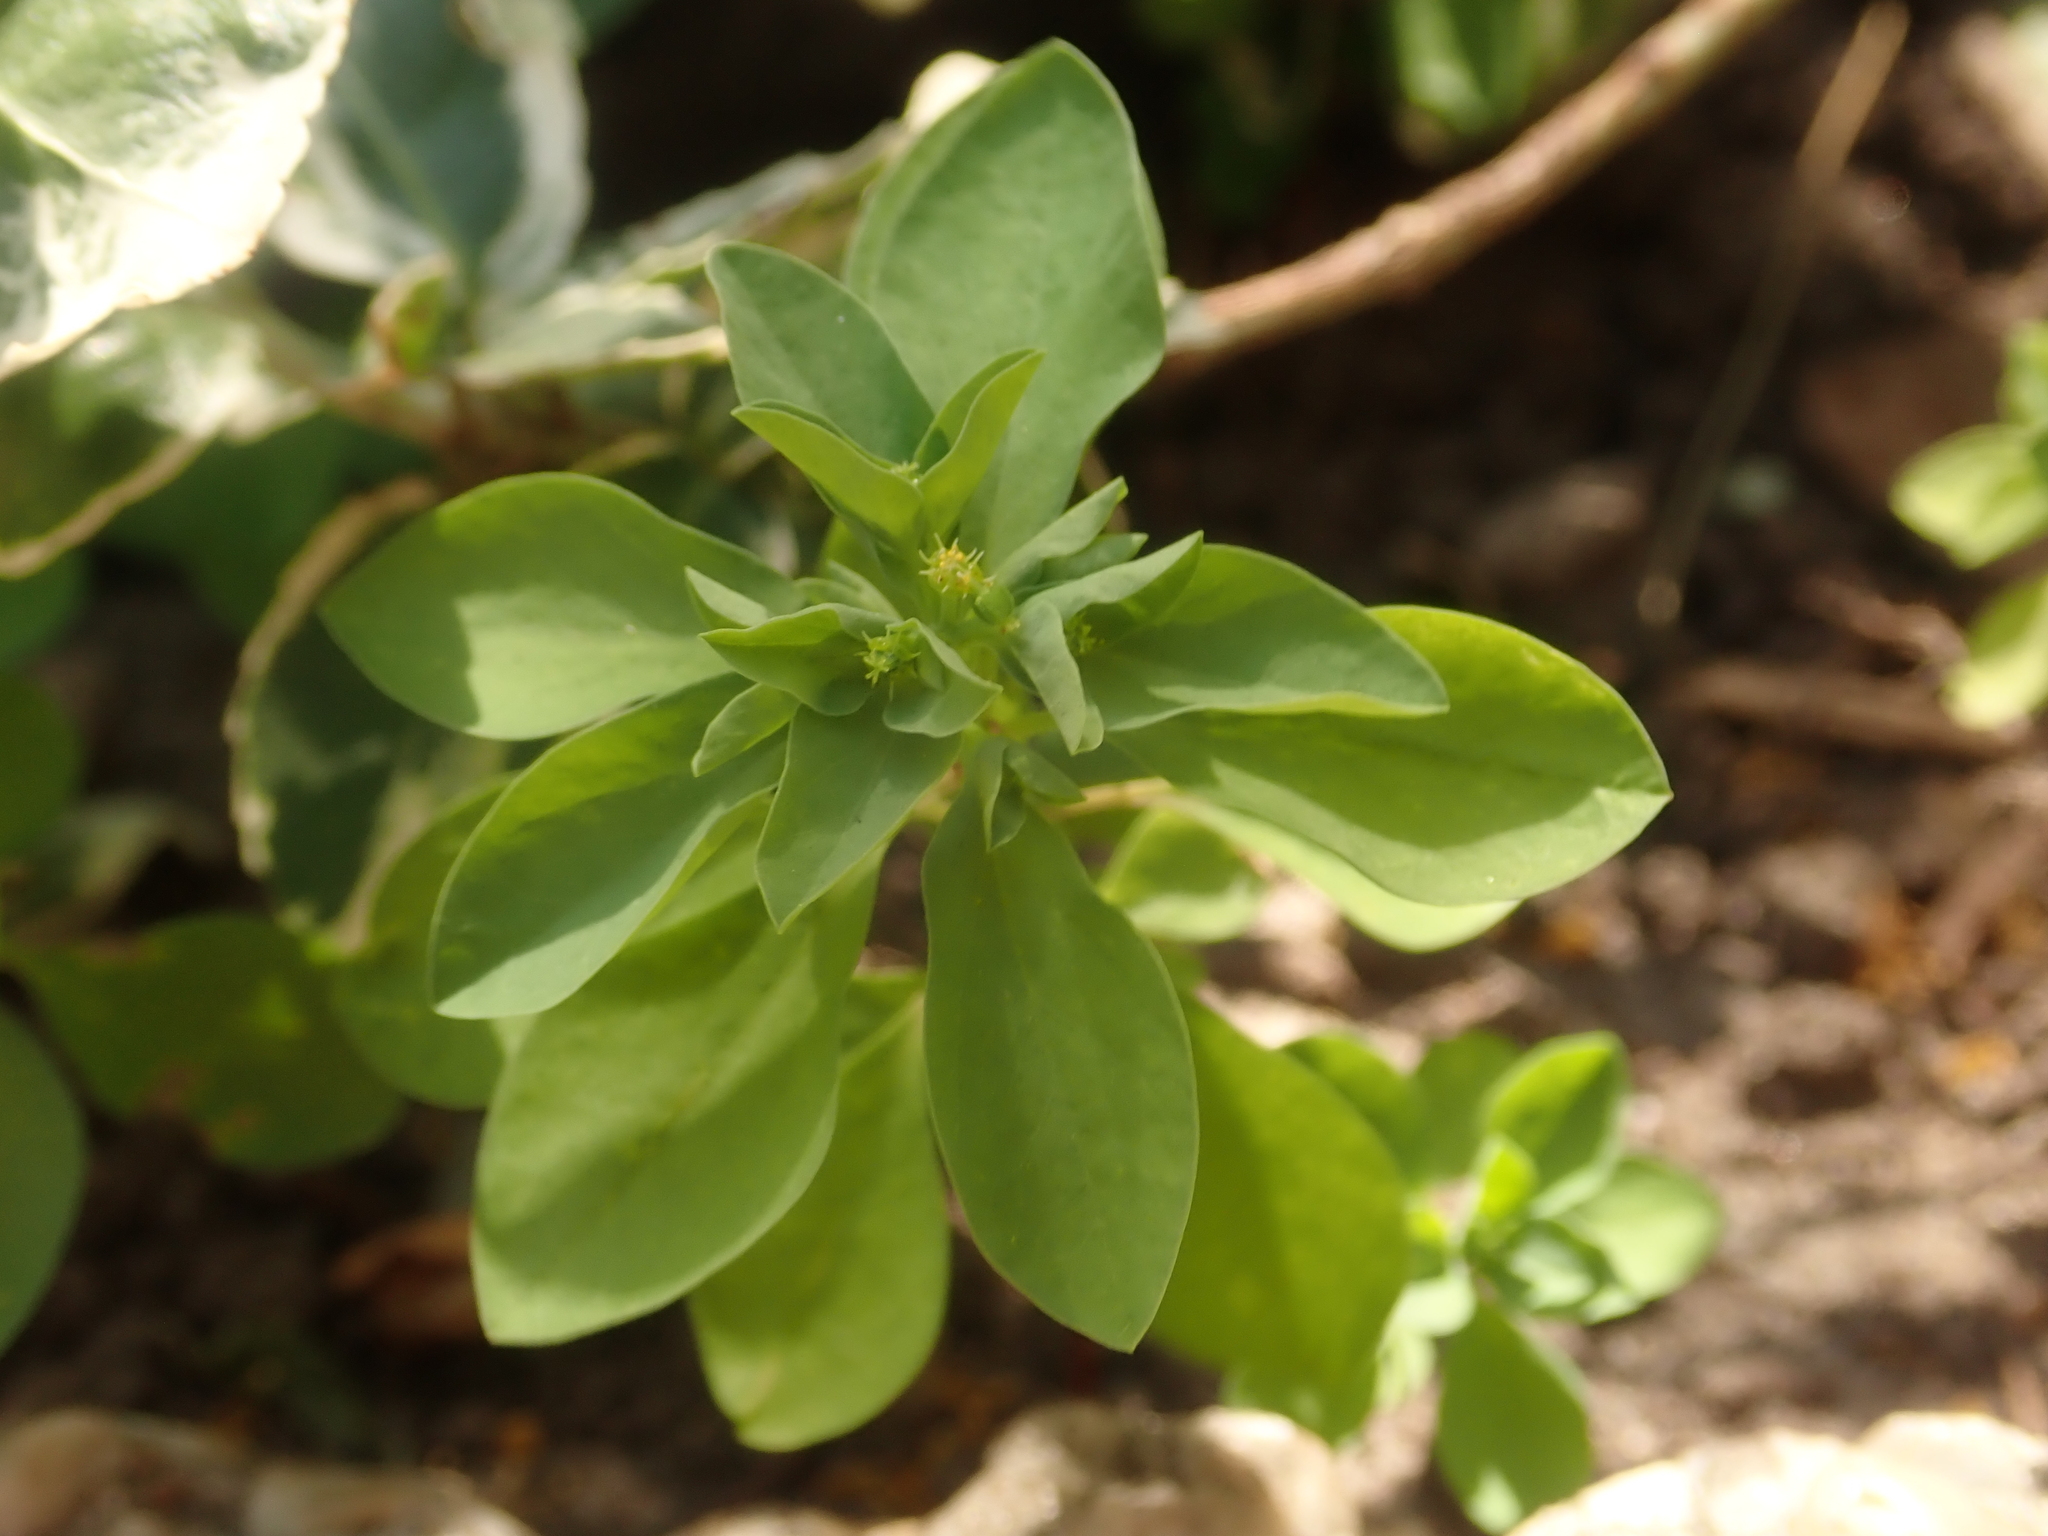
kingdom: Plantae
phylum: Tracheophyta
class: Magnoliopsida
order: Malpighiales
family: Euphorbiaceae
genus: Euphorbia
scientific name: Euphorbia peplus
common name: Petty spurge
